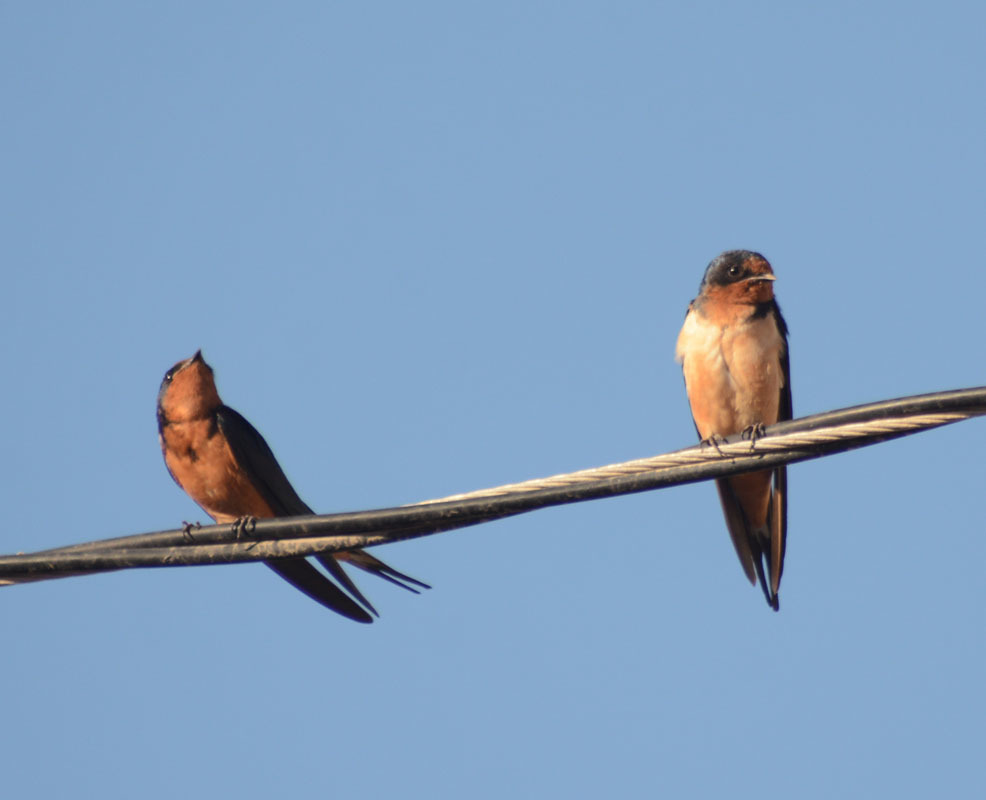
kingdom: Animalia
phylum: Chordata
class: Aves
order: Passeriformes
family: Hirundinidae
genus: Hirundo
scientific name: Hirundo rustica
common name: Barn swallow
